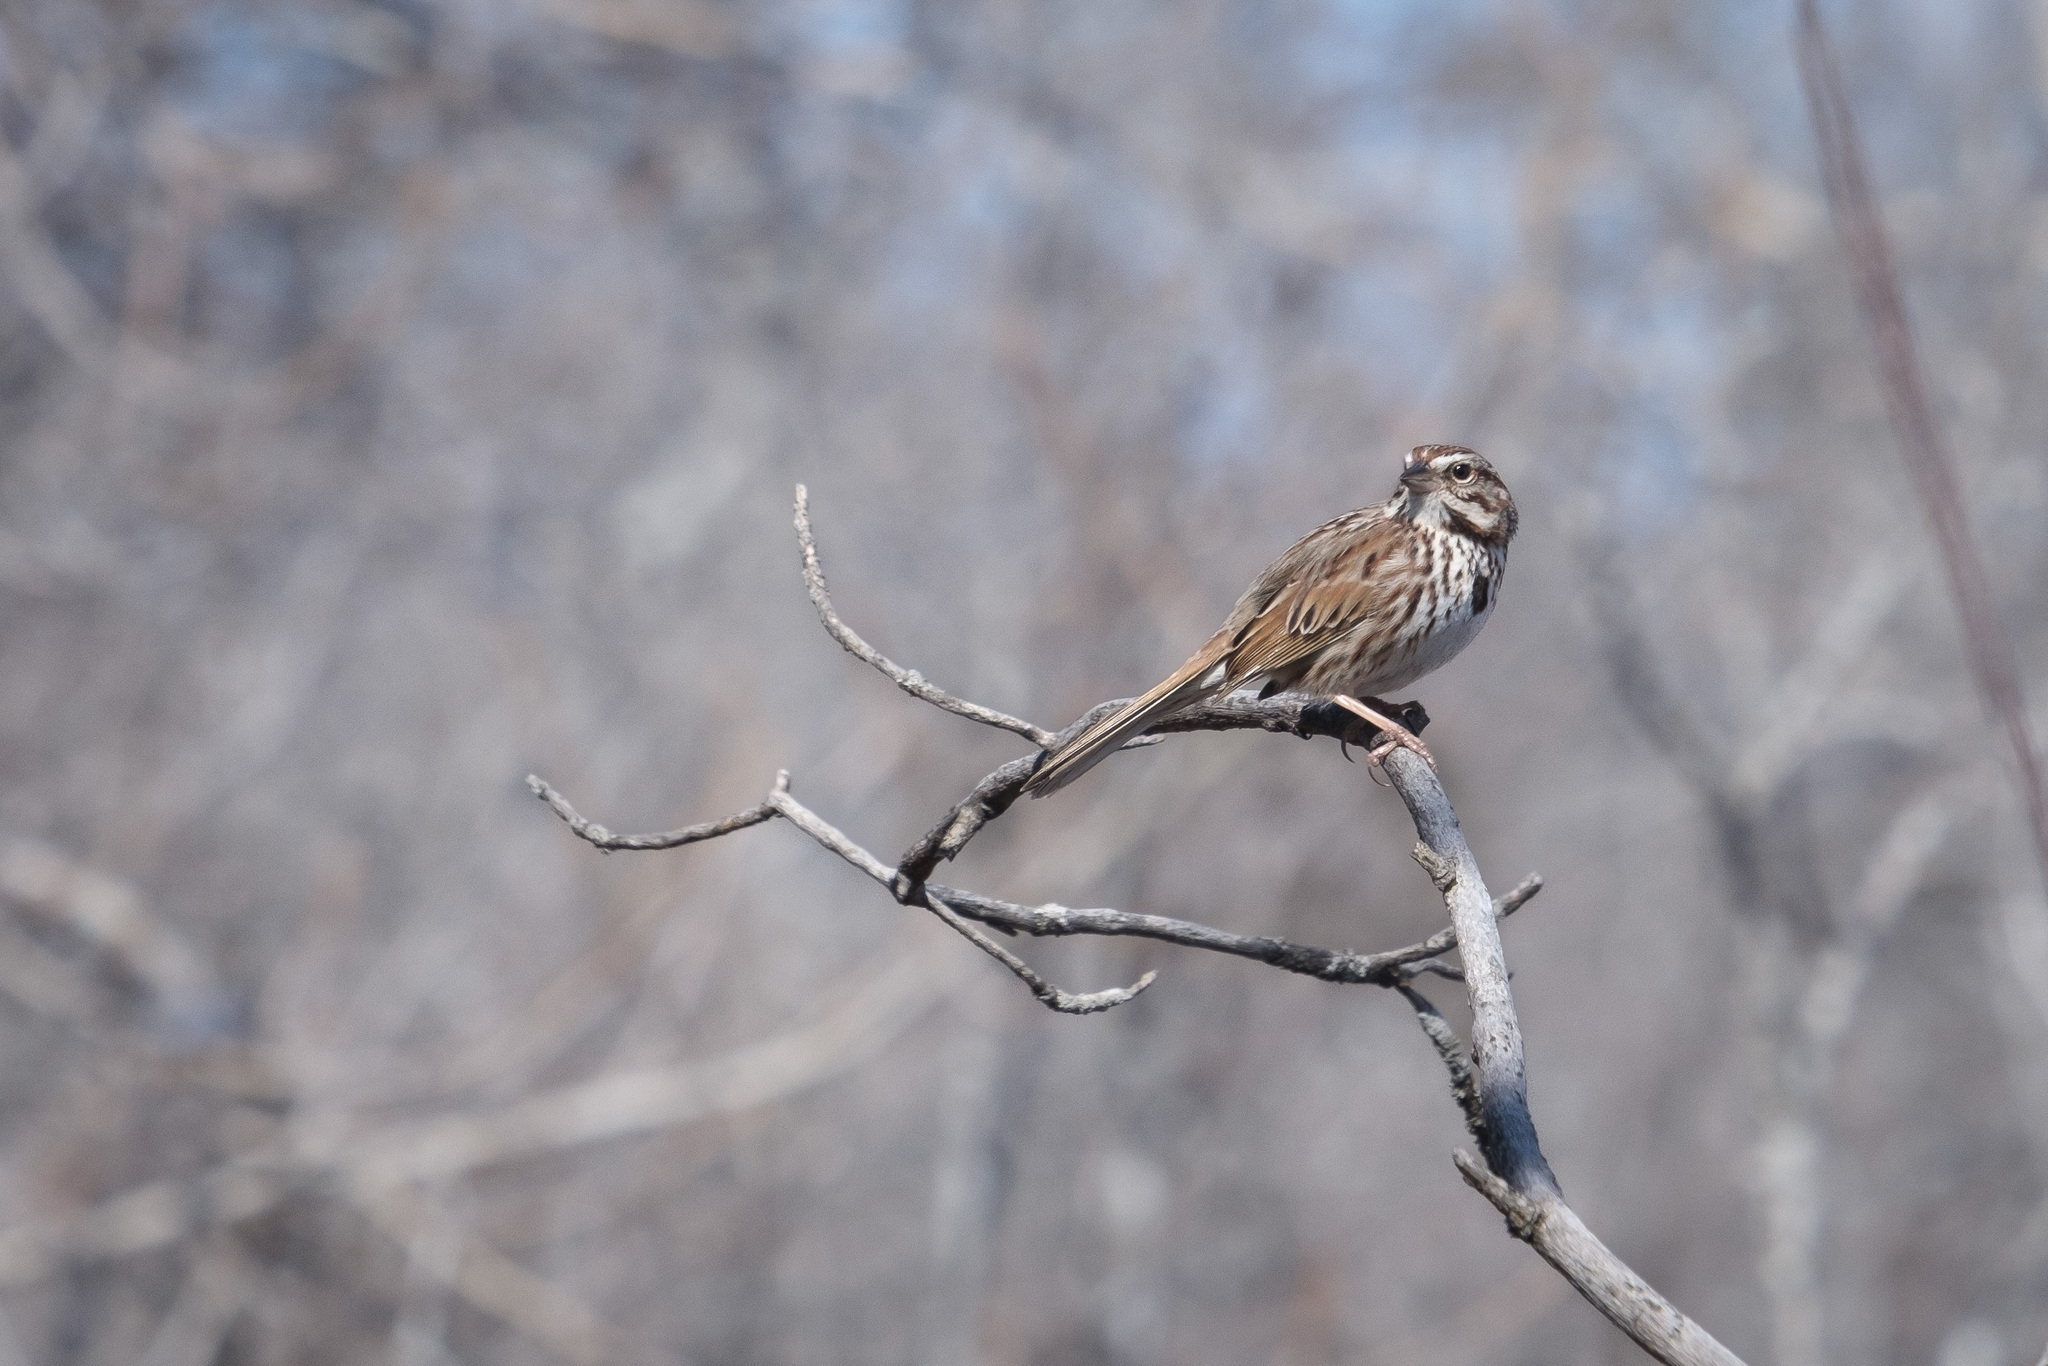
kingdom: Animalia
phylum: Chordata
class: Aves
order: Passeriformes
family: Passerellidae
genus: Melospiza
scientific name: Melospiza melodia
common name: Song sparrow
